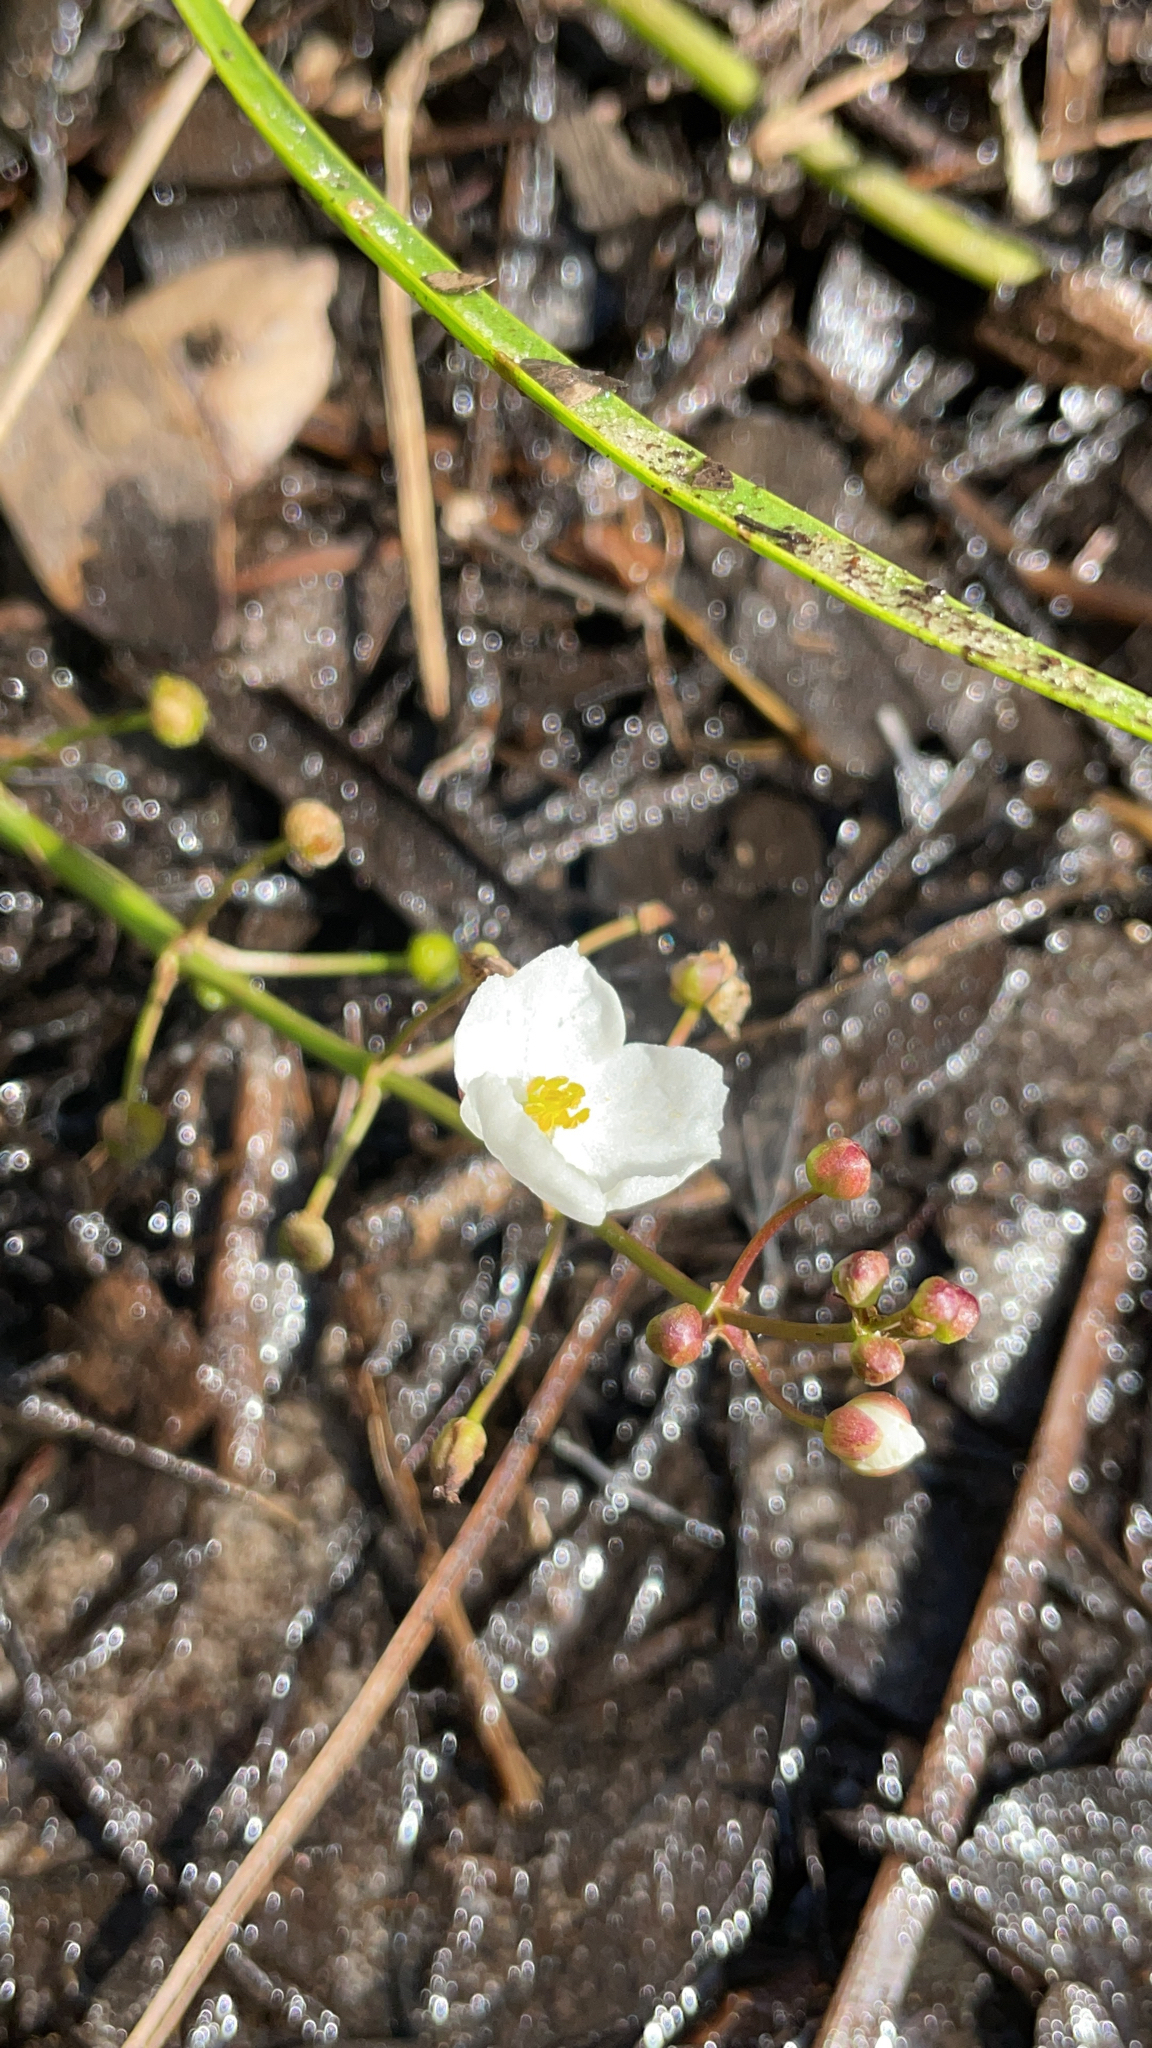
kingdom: Plantae
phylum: Tracheophyta
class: Liliopsida
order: Alismatales
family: Alismataceae
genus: Sagittaria
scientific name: Sagittaria graminea
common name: Grass-leaved arrowhead
